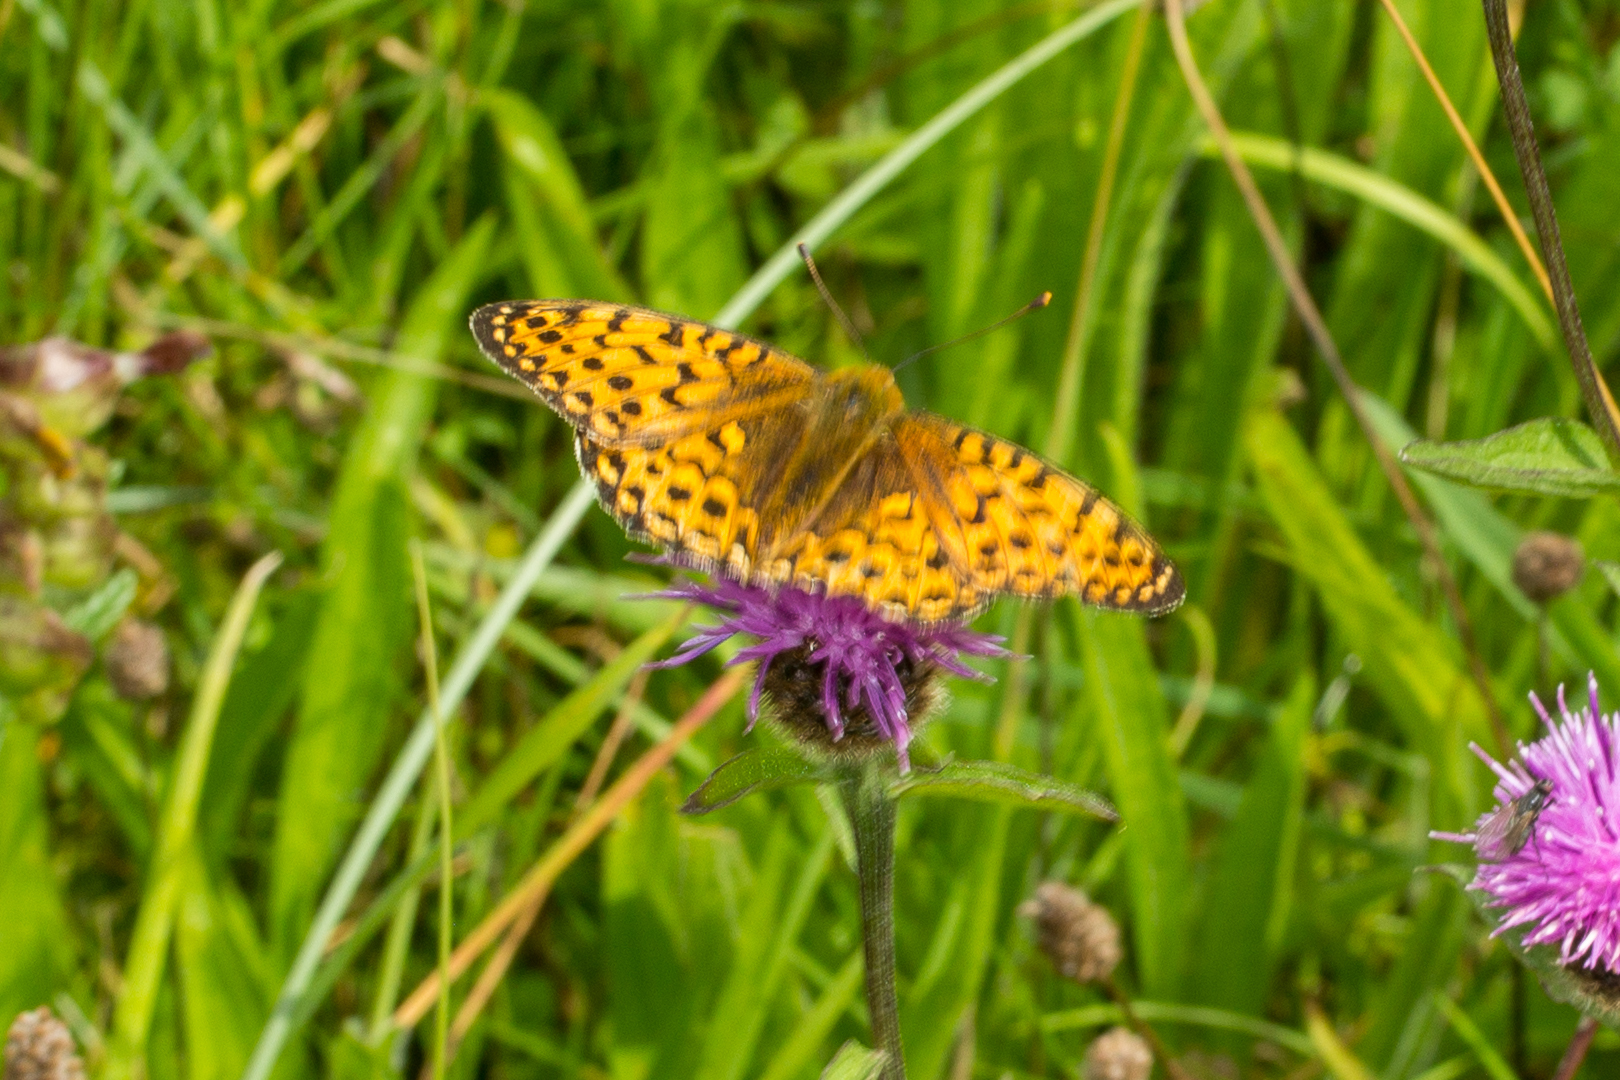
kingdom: Animalia
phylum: Arthropoda
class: Insecta
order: Lepidoptera
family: Nymphalidae
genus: Speyeria
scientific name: Speyeria aglaja
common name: Dark green fritillary
